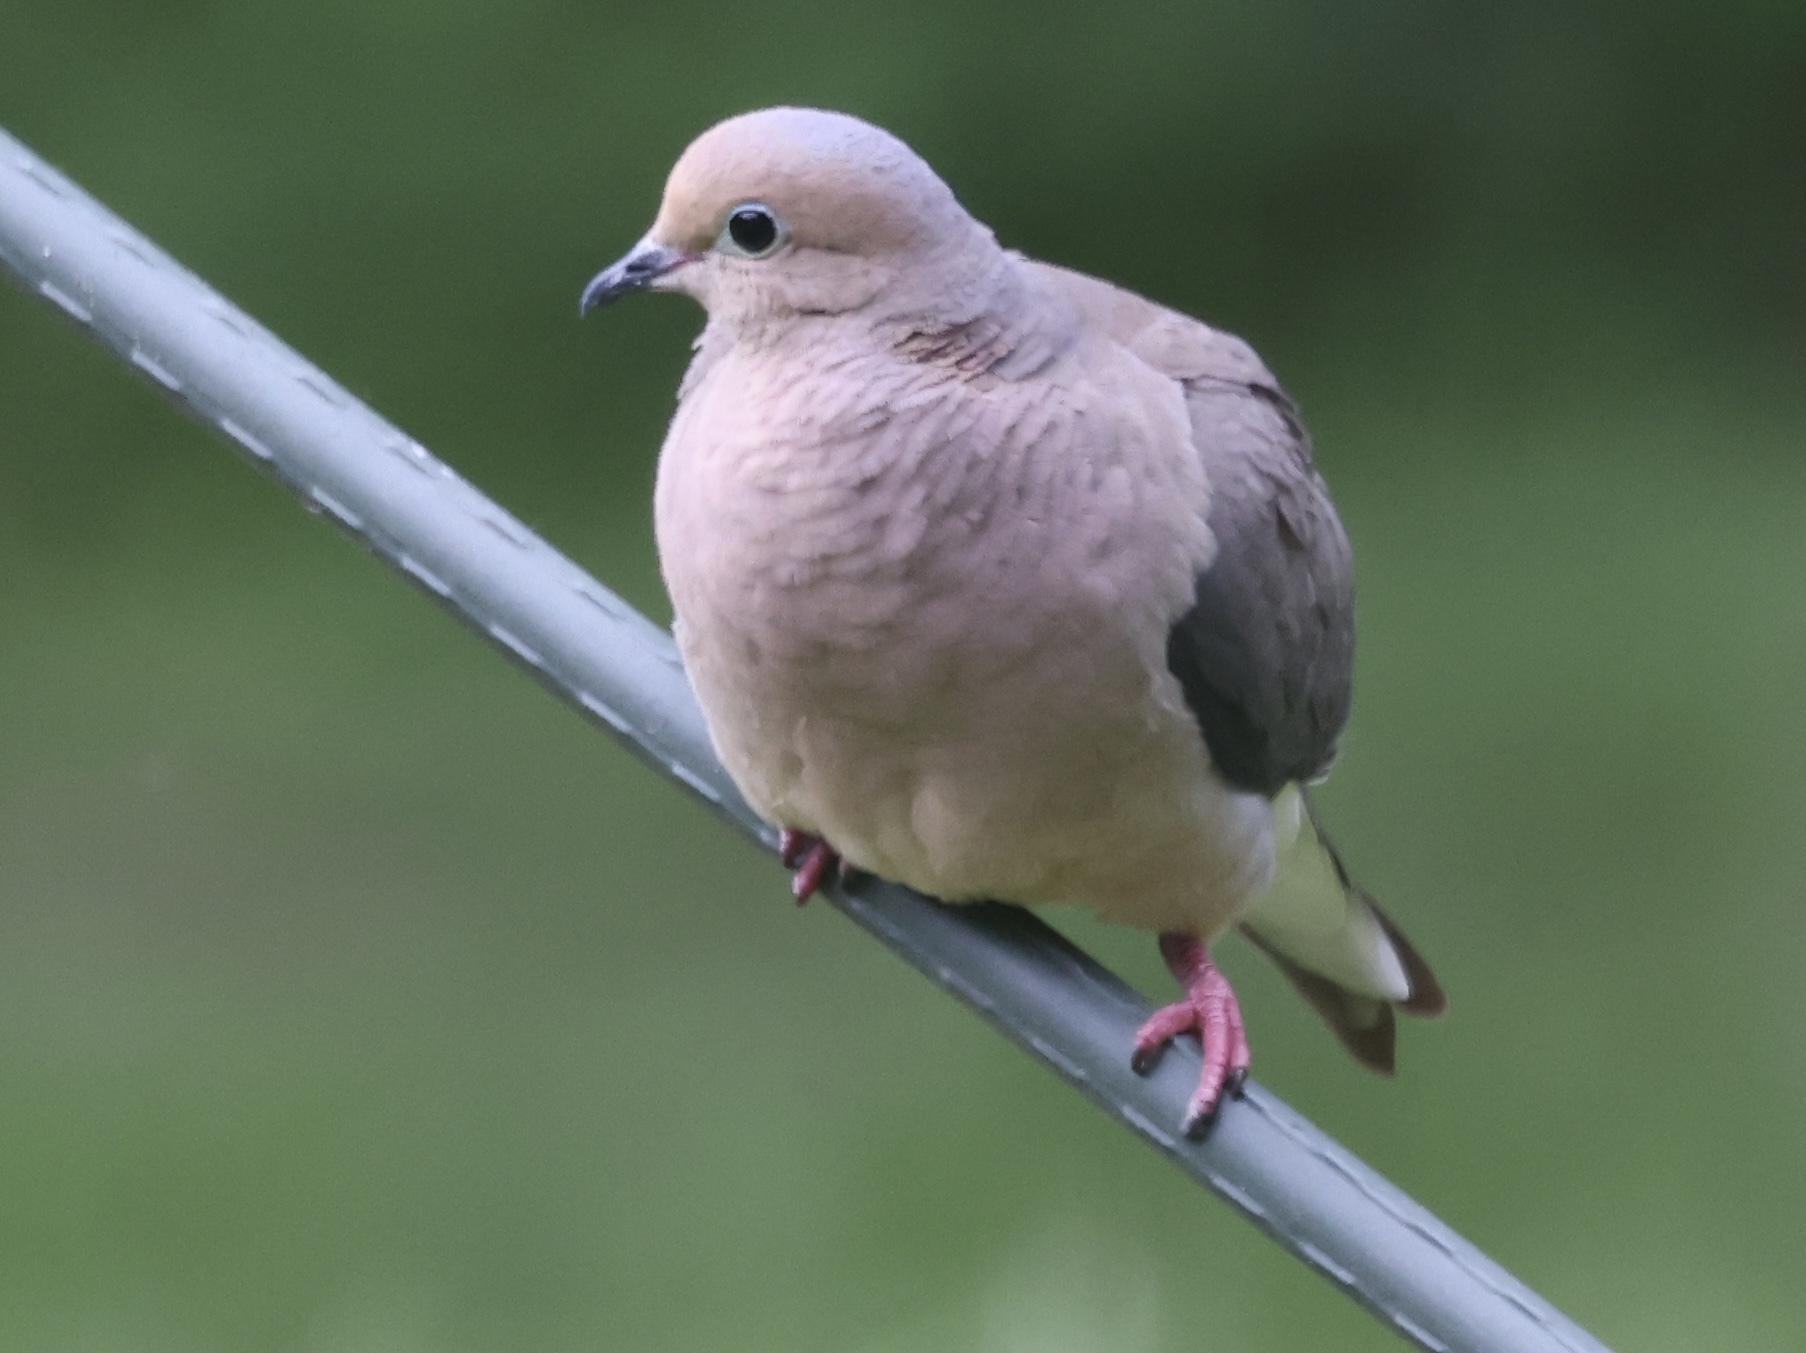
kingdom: Animalia
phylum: Chordata
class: Aves
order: Columbiformes
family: Columbidae
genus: Zenaida
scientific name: Zenaida macroura
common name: Mourning dove
